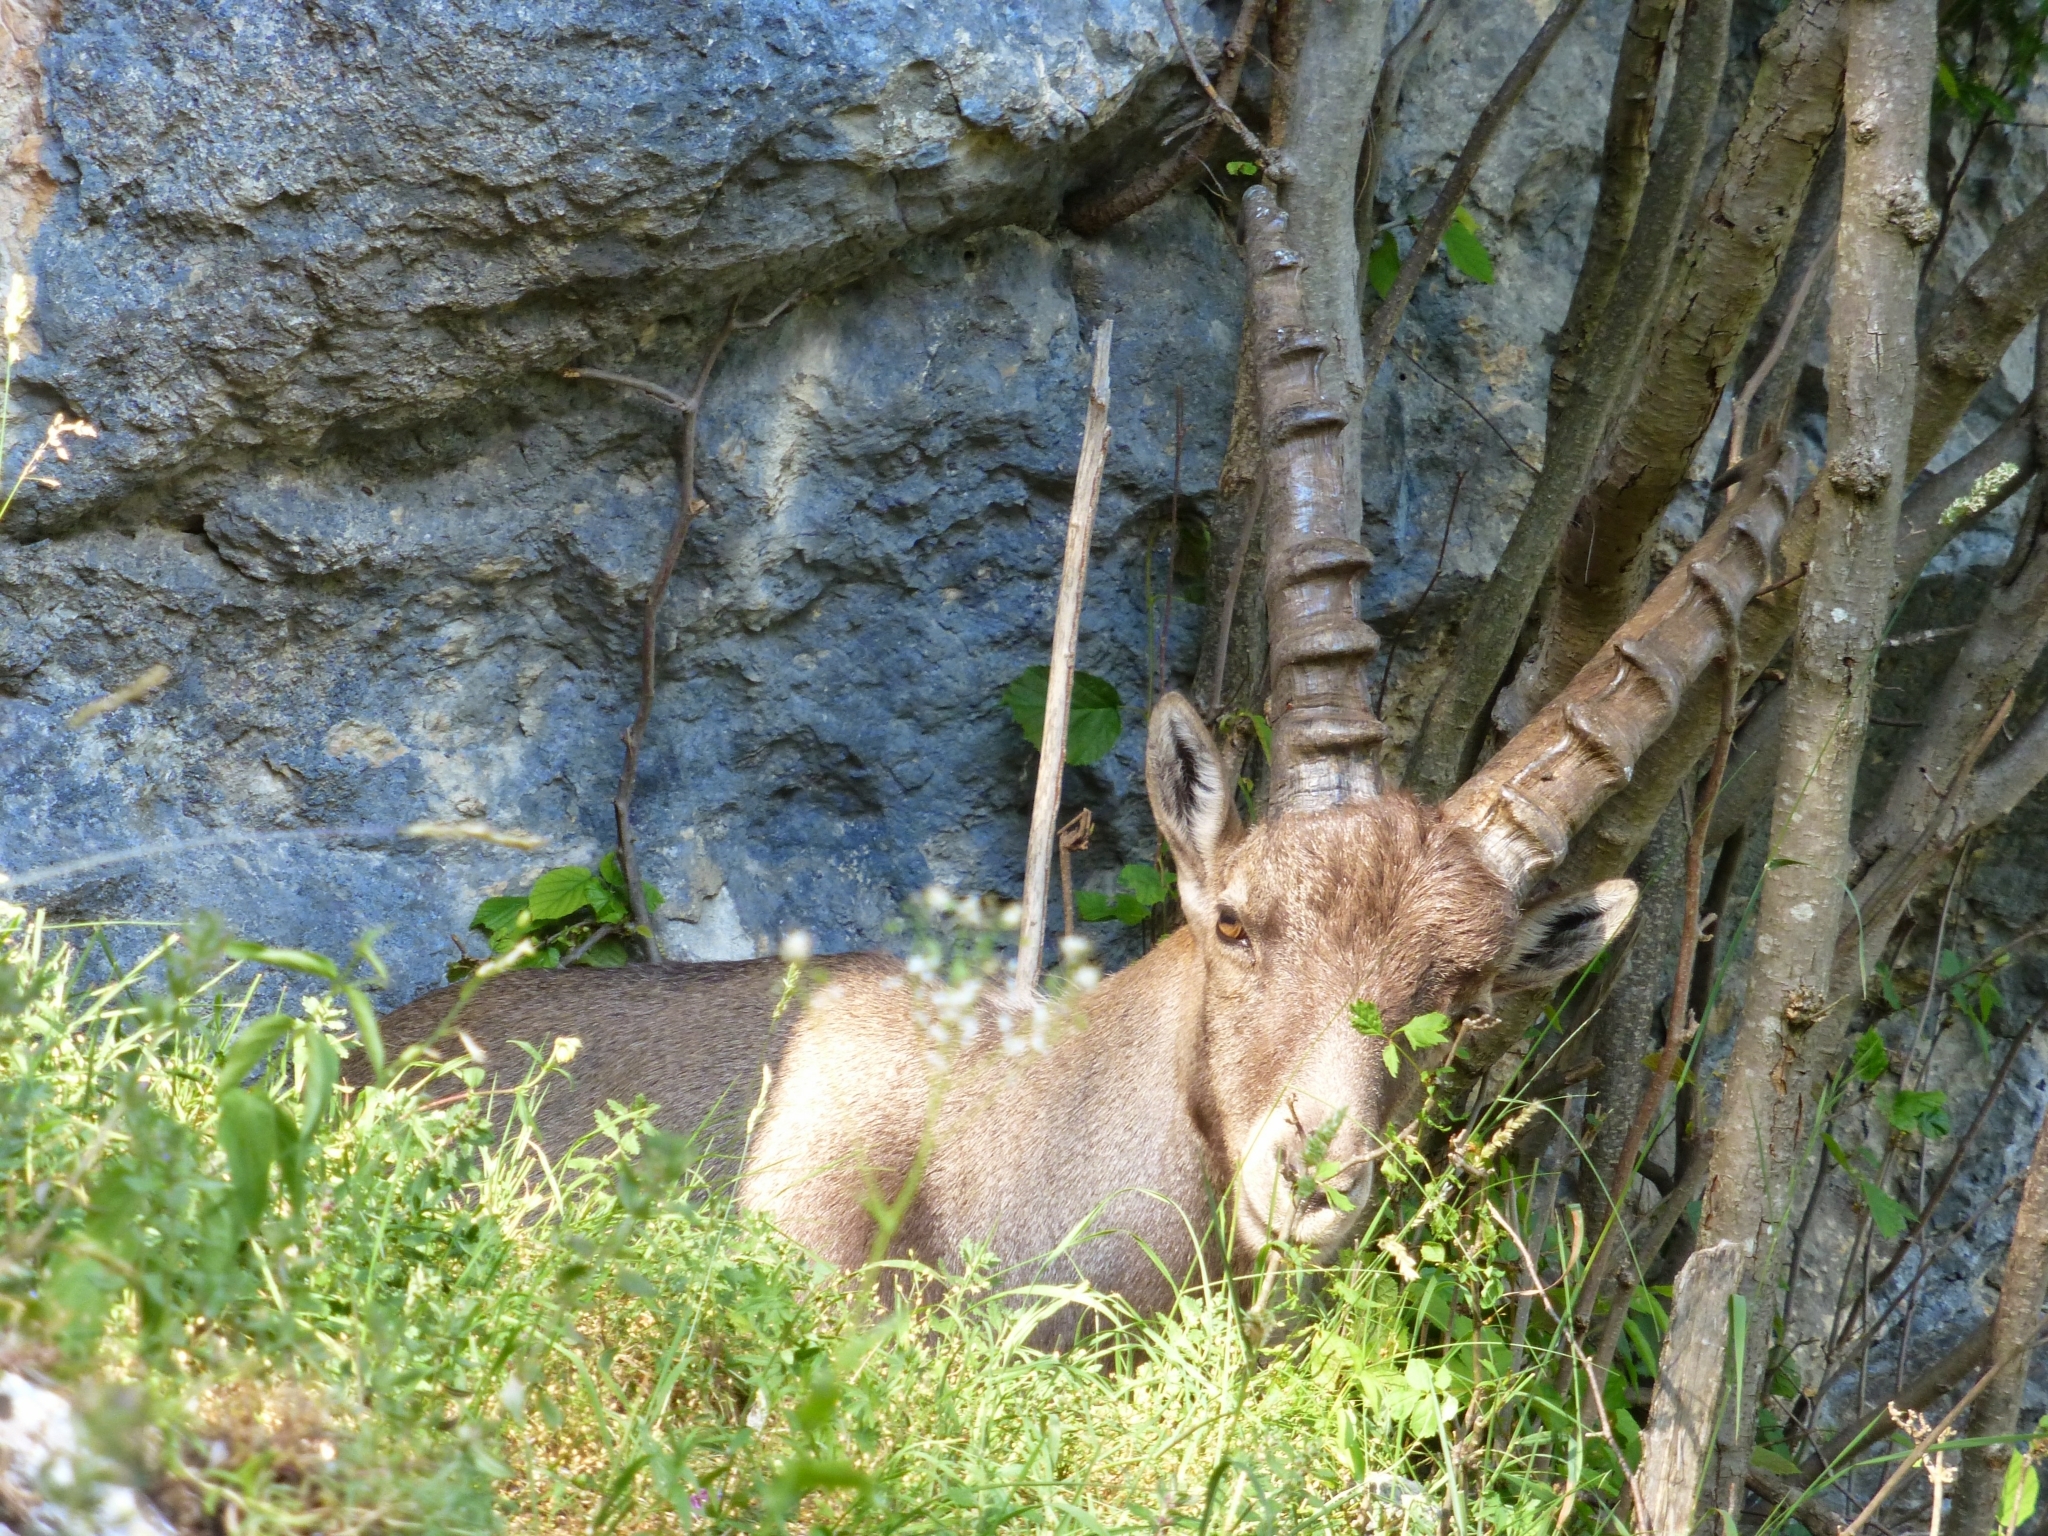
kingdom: Animalia
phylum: Chordata
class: Mammalia
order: Artiodactyla
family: Bovidae
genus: Capra
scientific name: Capra ibex
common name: Alpine ibex
